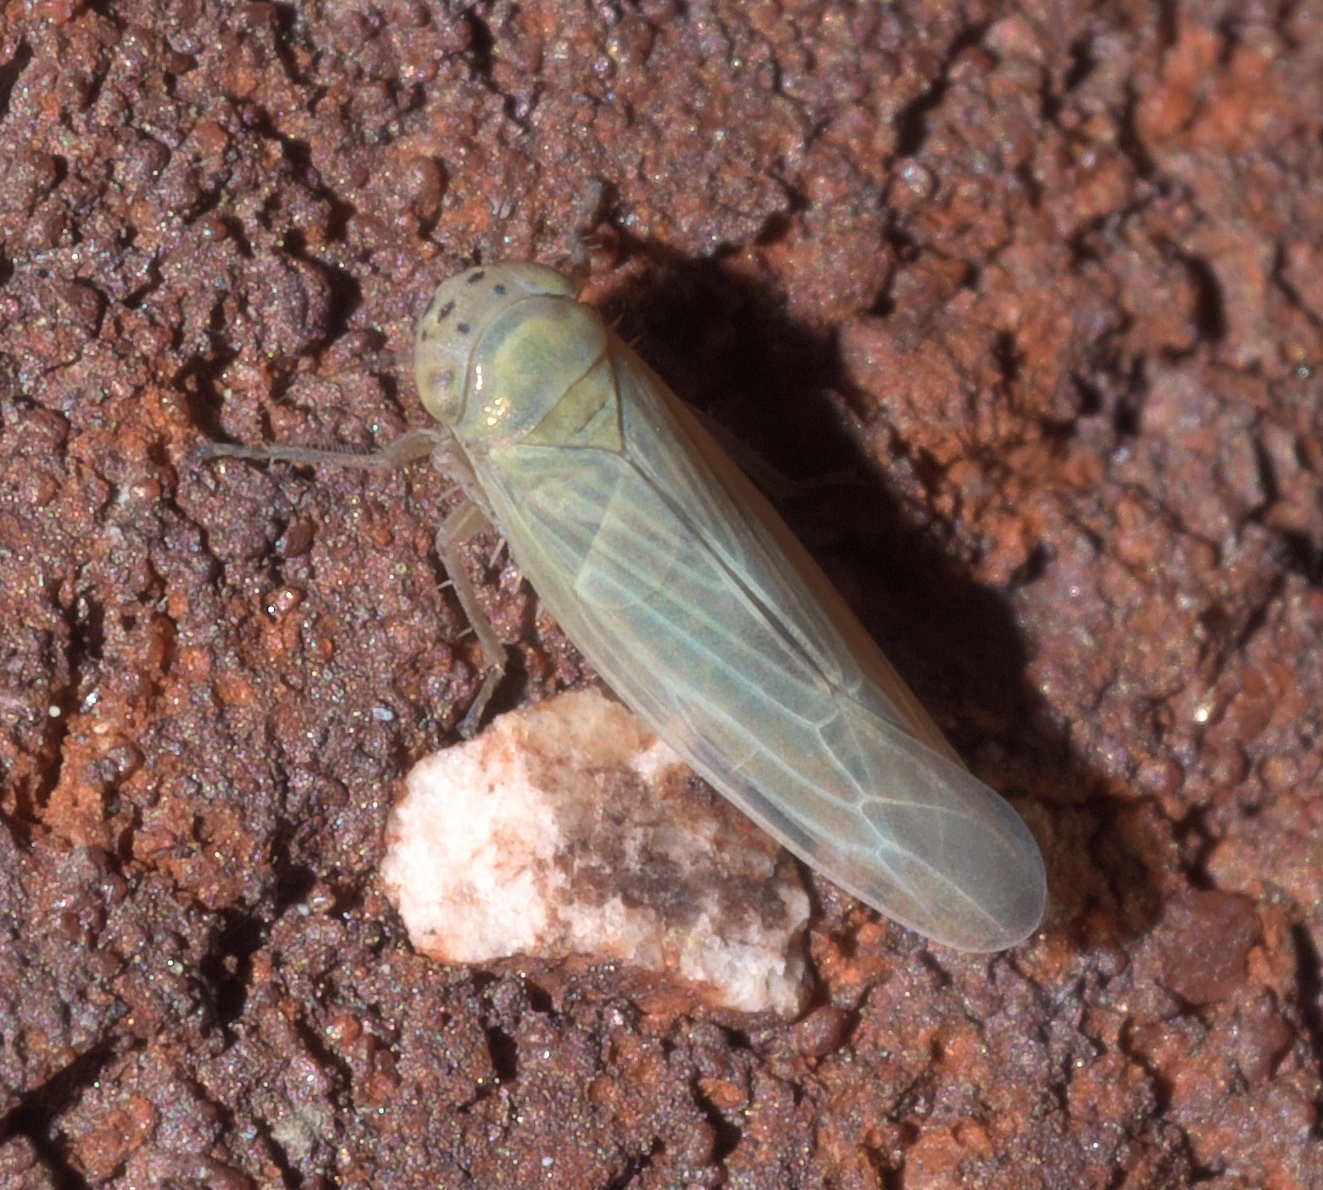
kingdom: Animalia
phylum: Arthropoda
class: Insecta
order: Hemiptera
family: Cicadellidae
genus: Macrosteles
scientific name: Macrosteles quadrilineatus
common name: Aster leafhopper
